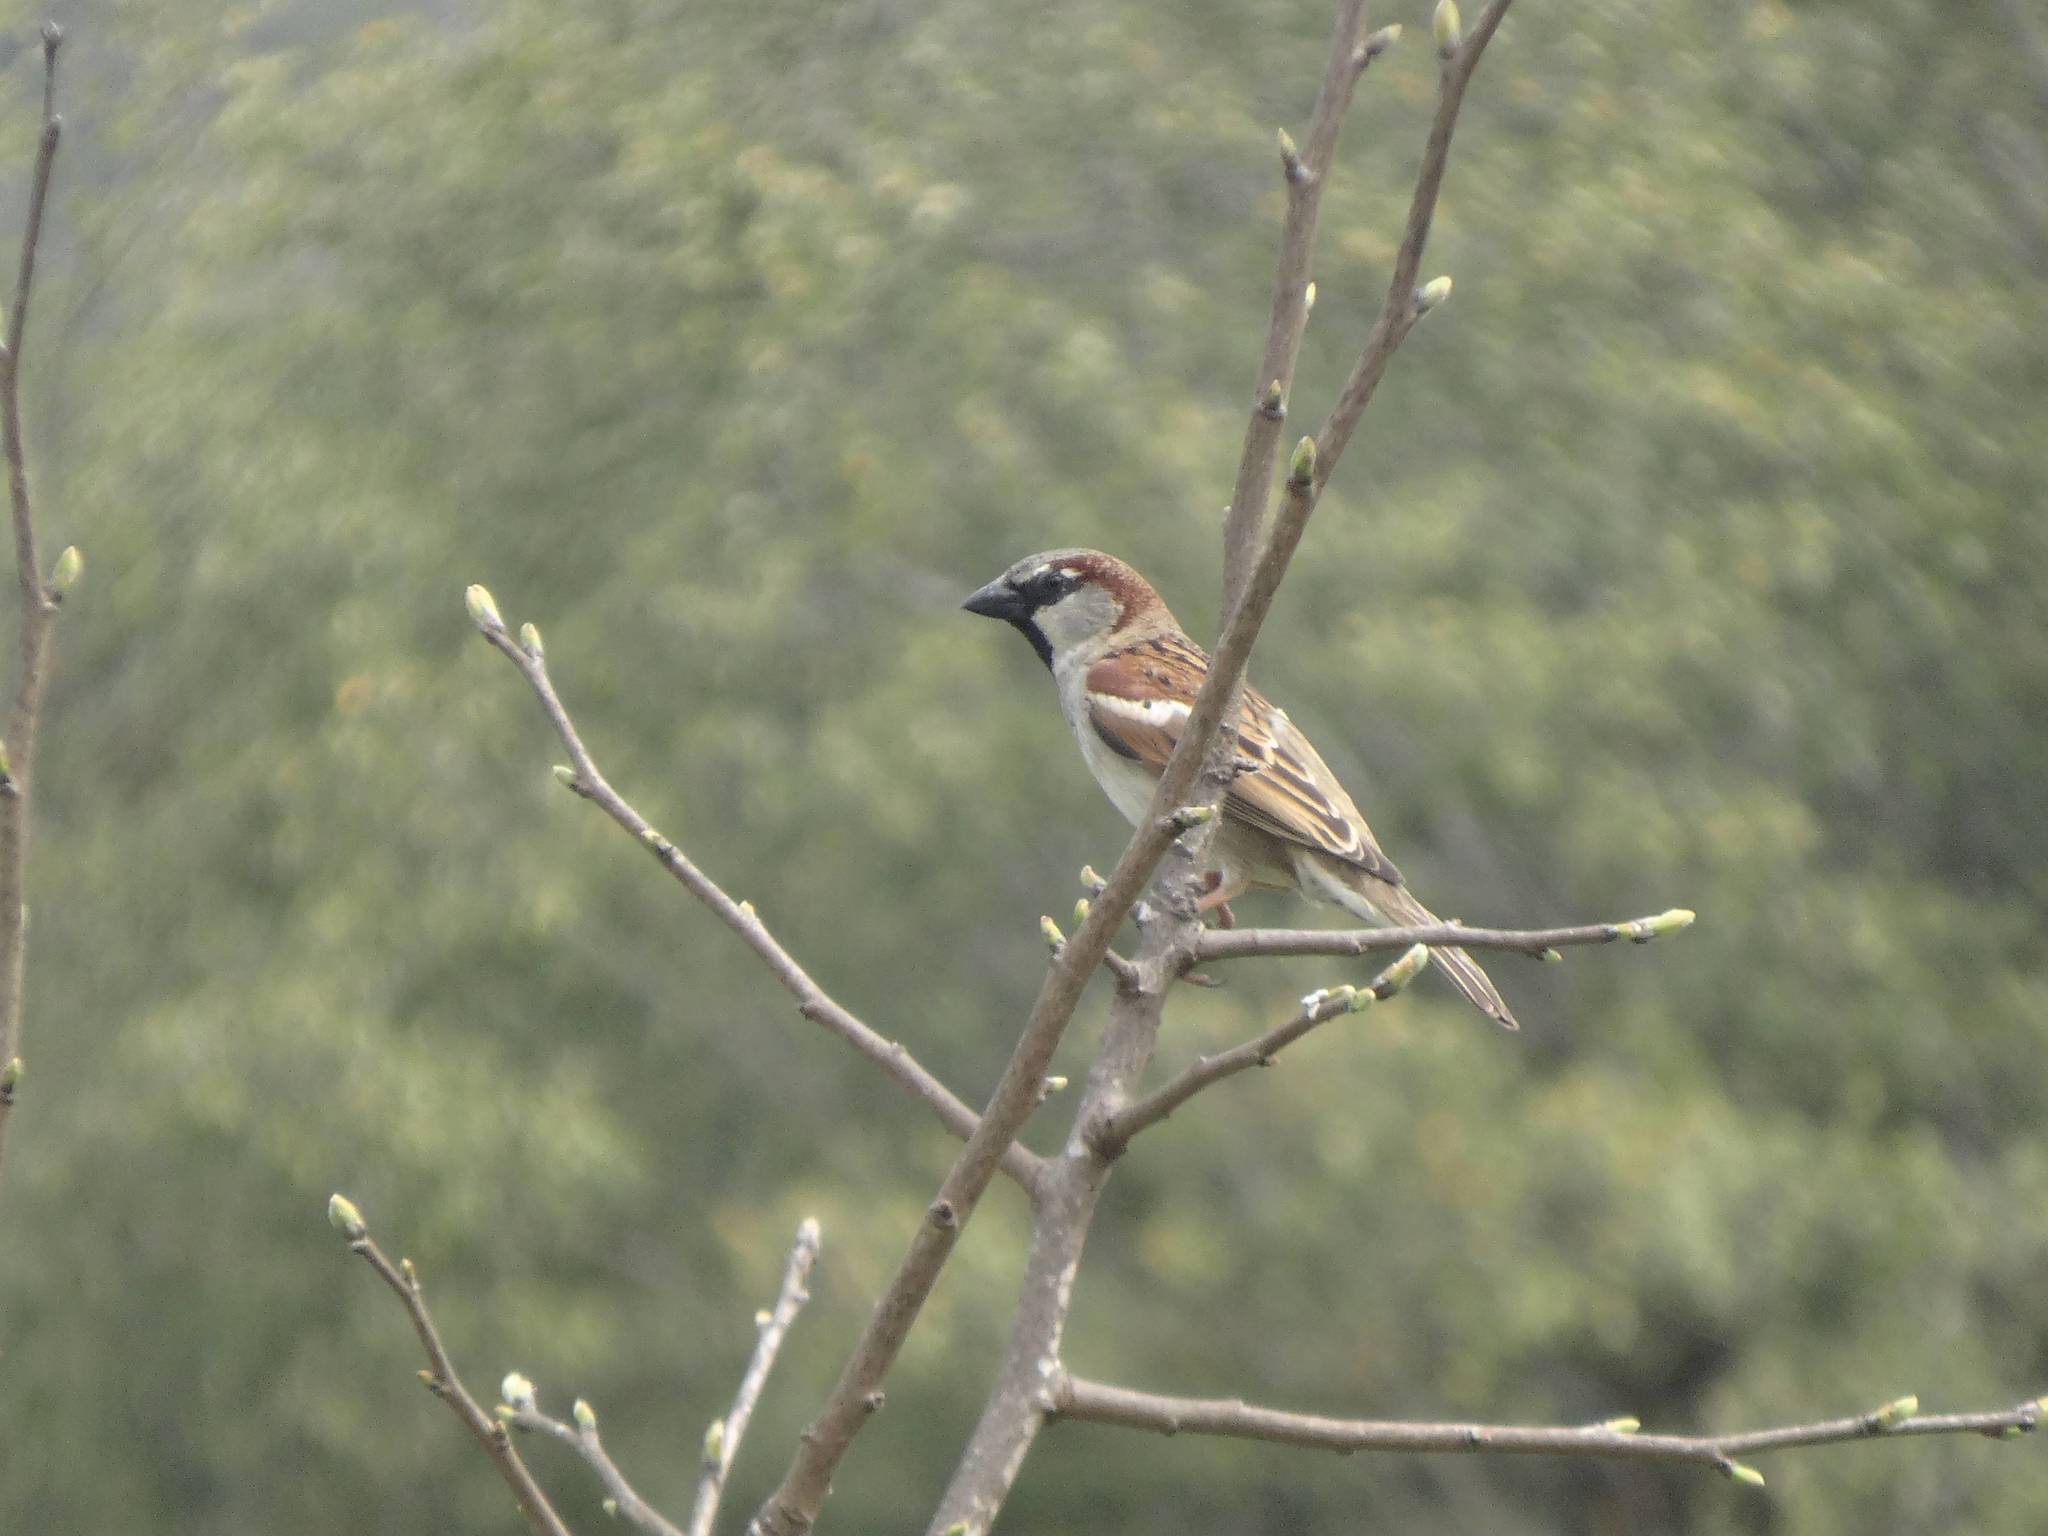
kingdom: Animalia
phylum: Chordata
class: Aves
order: Passeriformes
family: Passeridae
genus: Passer
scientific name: Passer domesticus
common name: House sparrow
